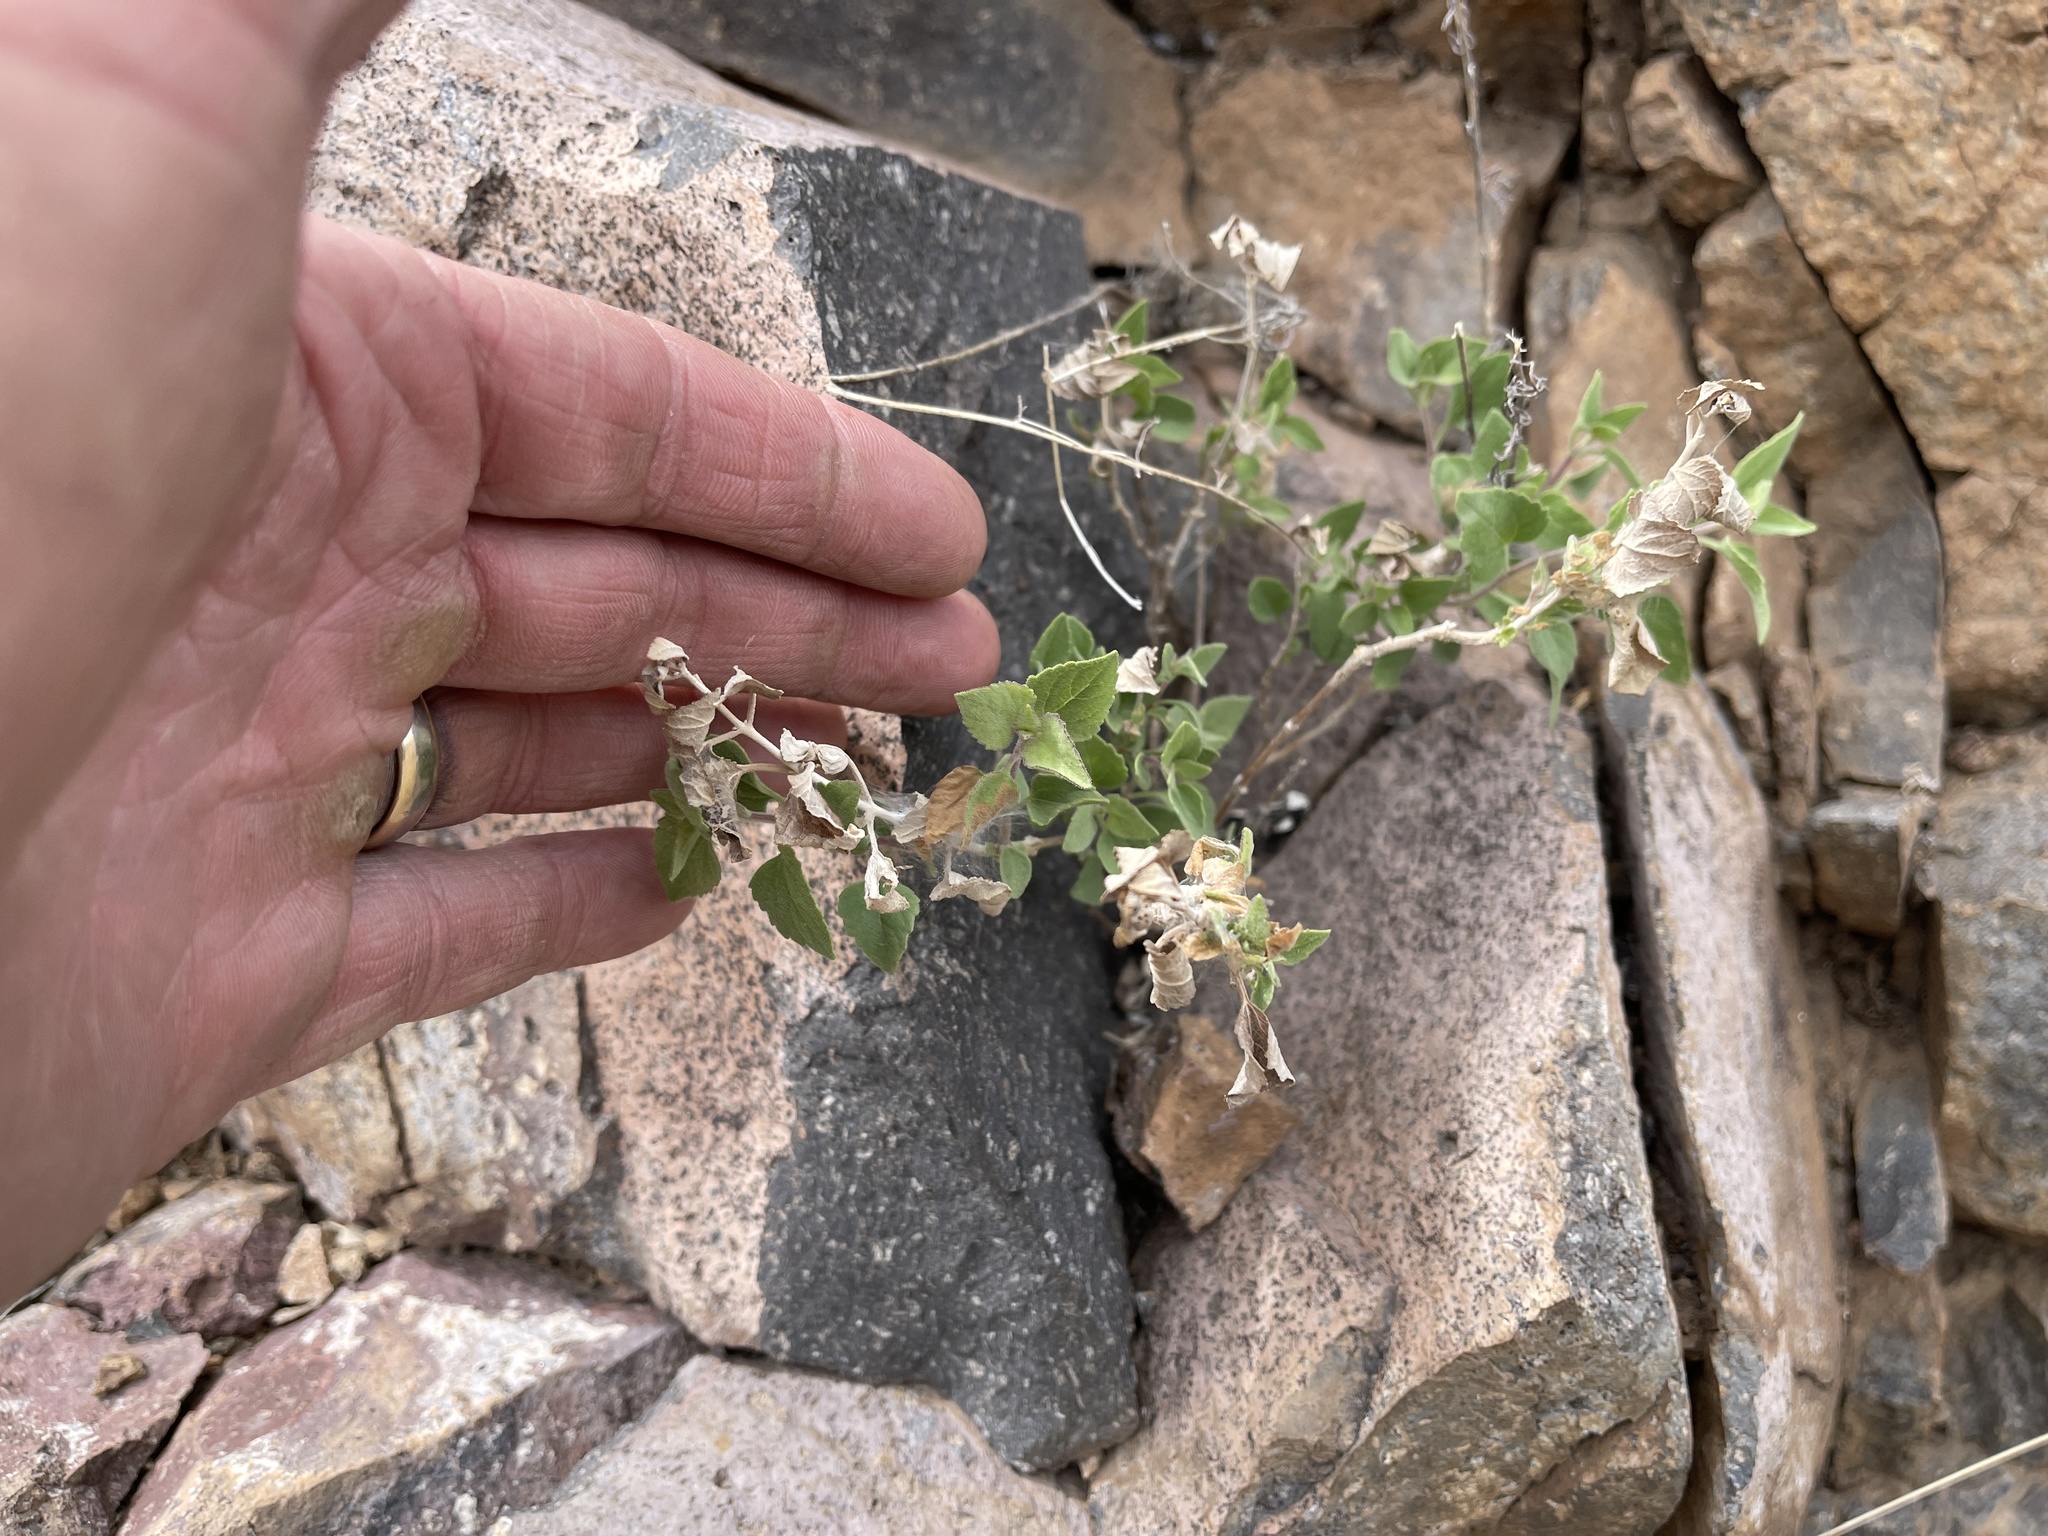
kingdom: Plantae
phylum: Tracheophyta
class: Magnoliopsida
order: Asterales
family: Asteraceae
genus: Brickellia
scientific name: Brickellia californica
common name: California brickellbush
